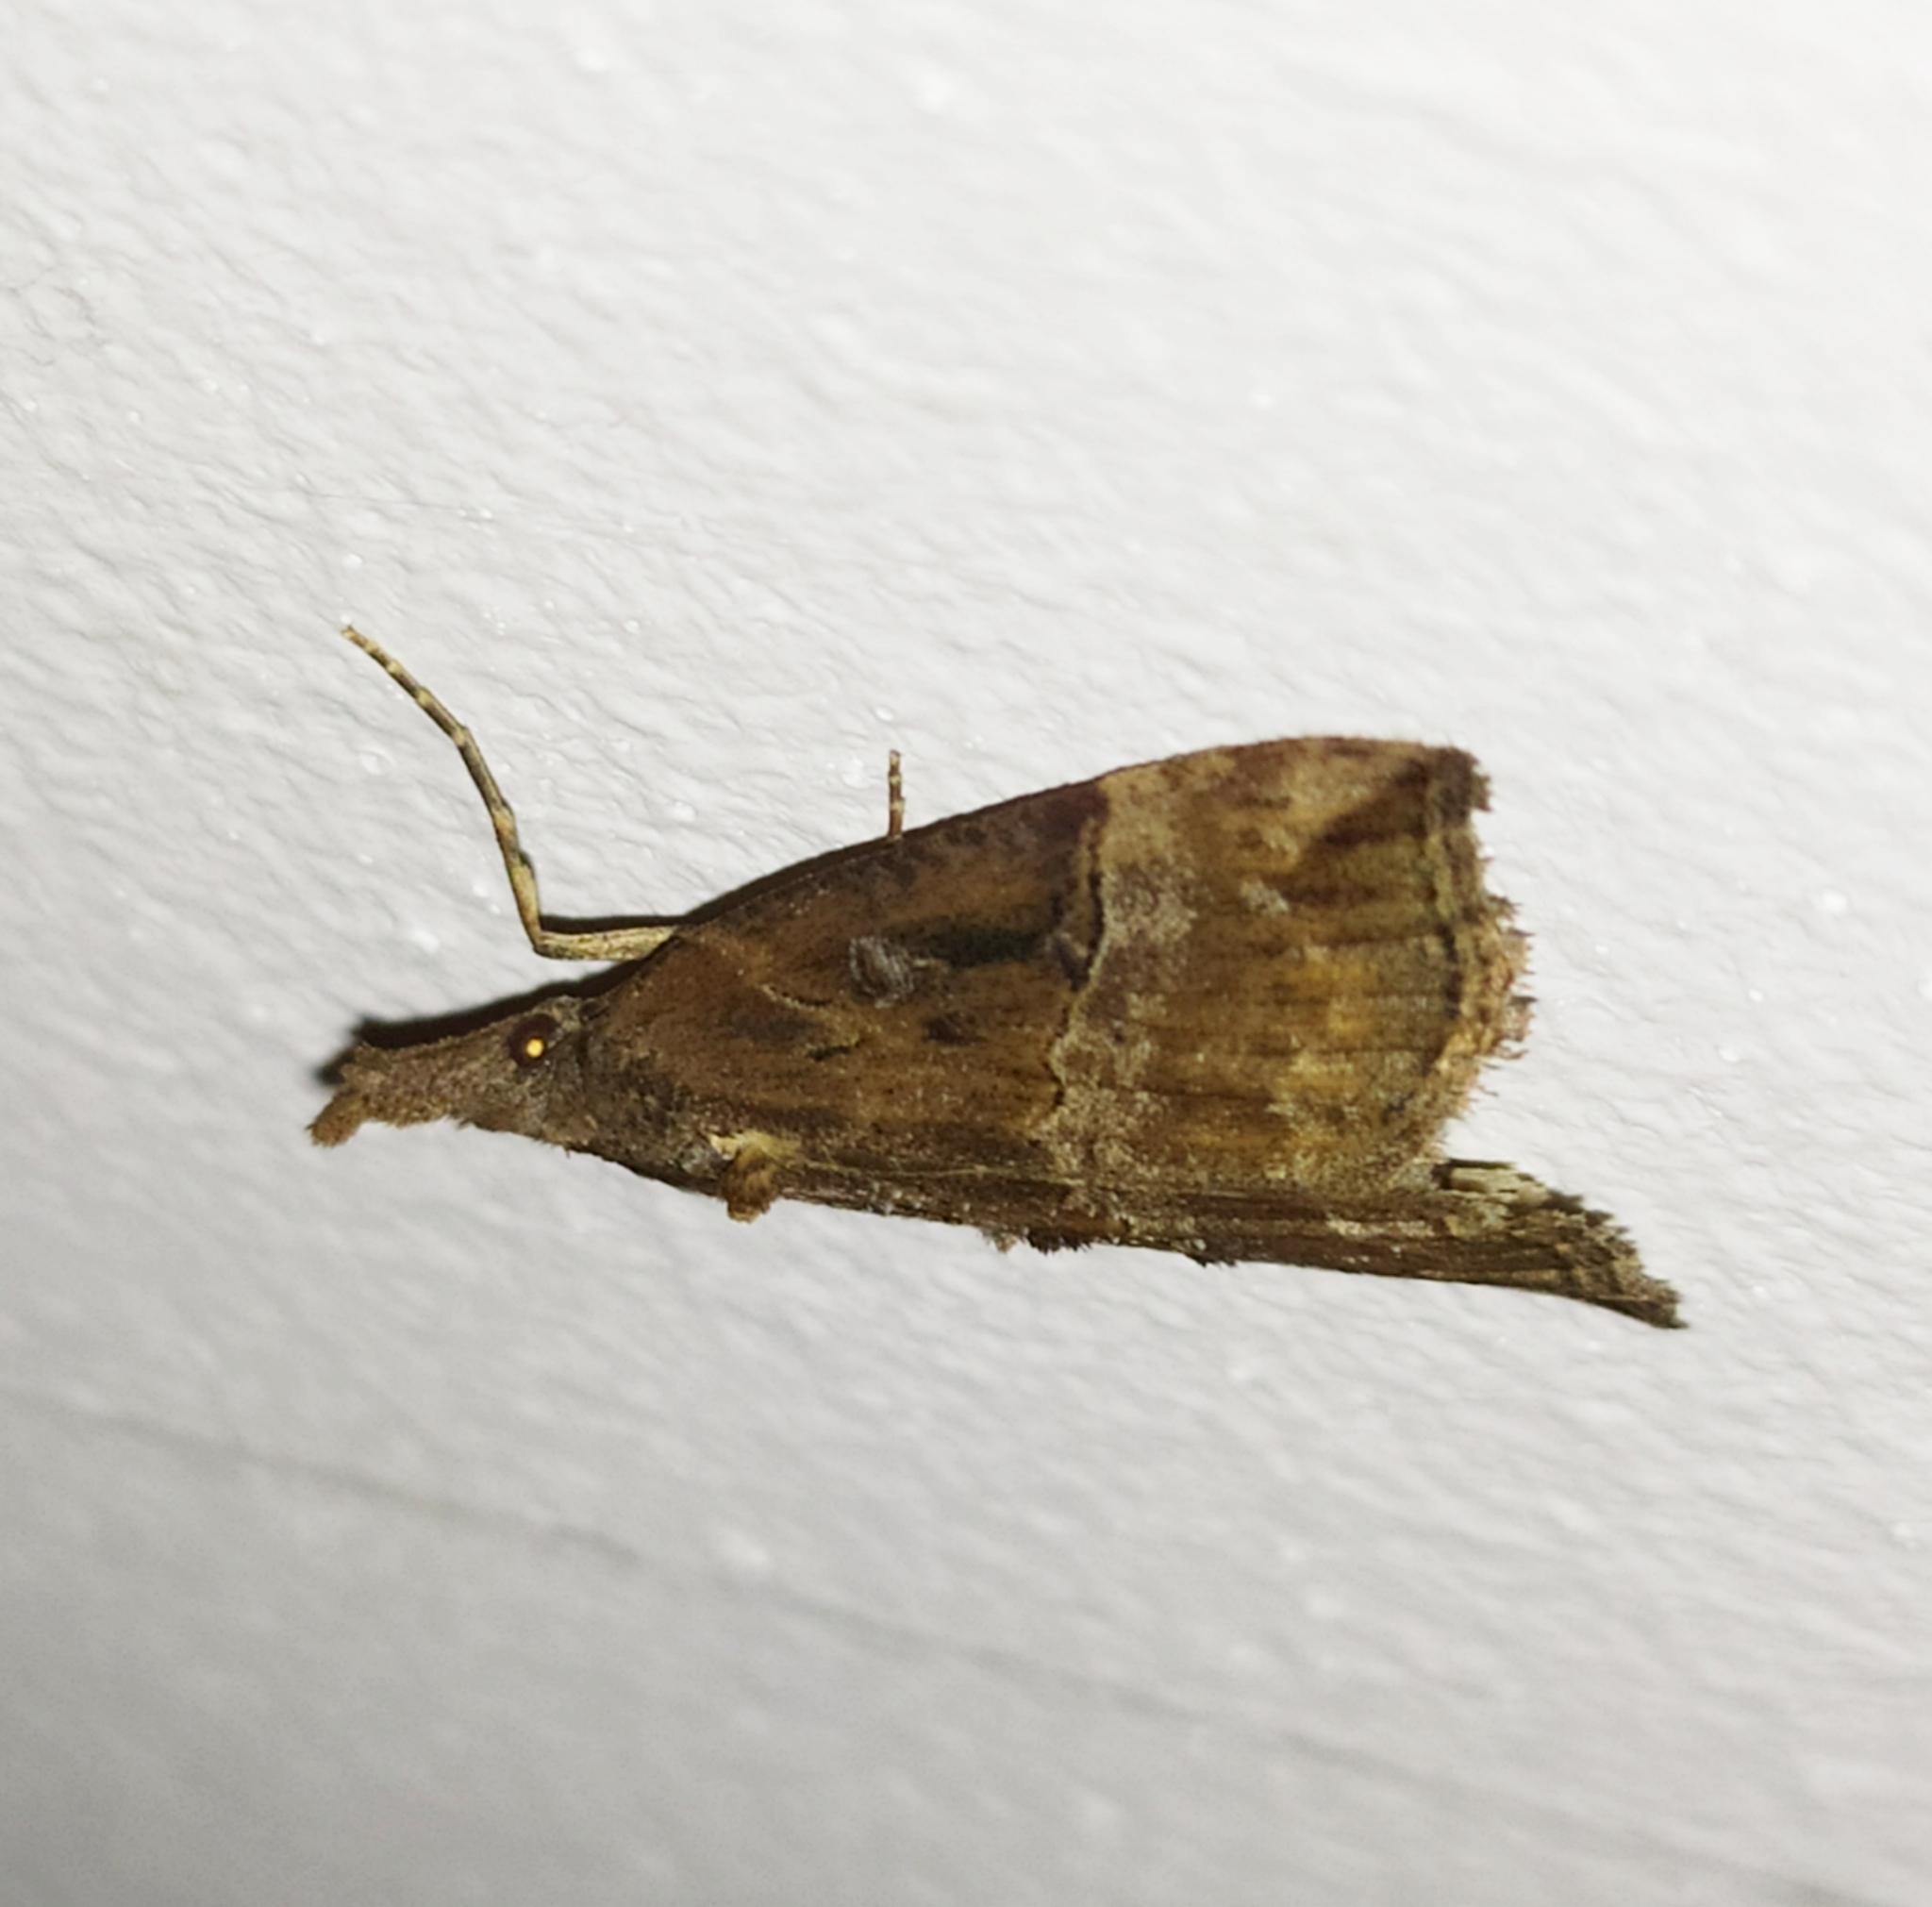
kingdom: Animalia
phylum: Arthropoda
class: Insecta
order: Lepidoptera
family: Erebidae
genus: Hypena
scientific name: Hypena rostralis
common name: Buttoned snout
